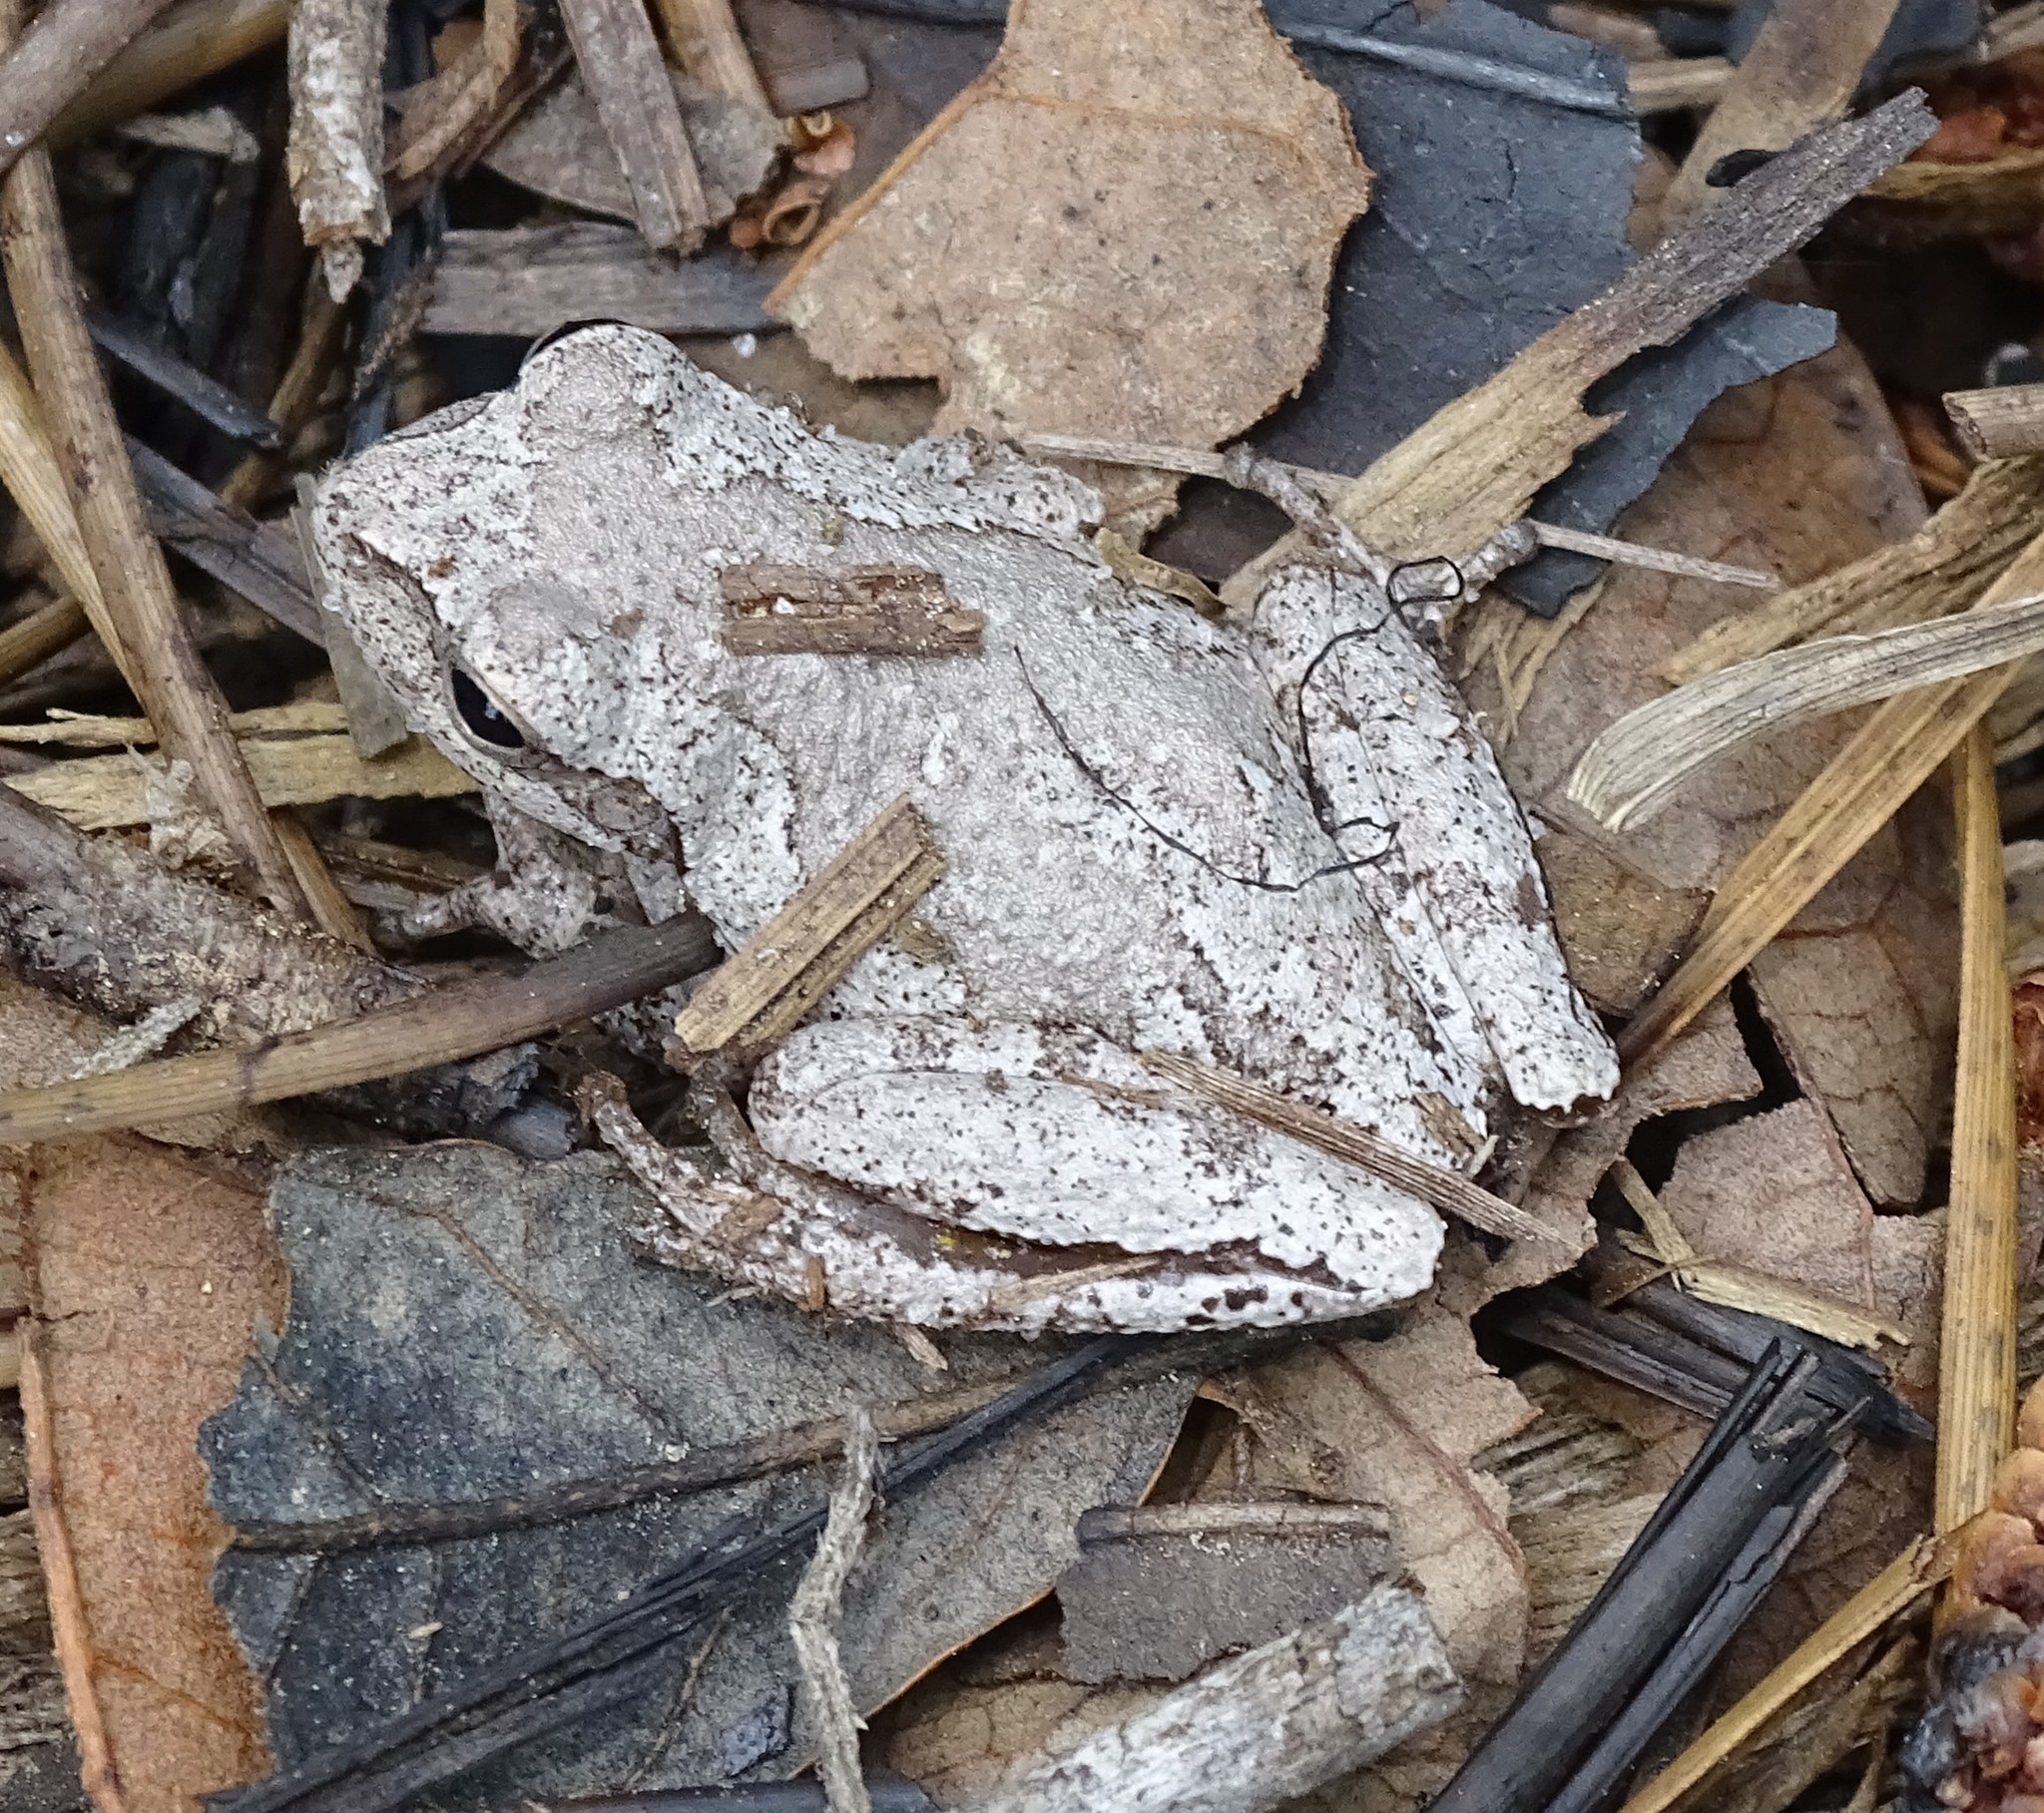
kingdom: Animalia
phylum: Chordata
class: Amphibia
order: Anura
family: Hylidae
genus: Hyla
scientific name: Hyla femoralis
